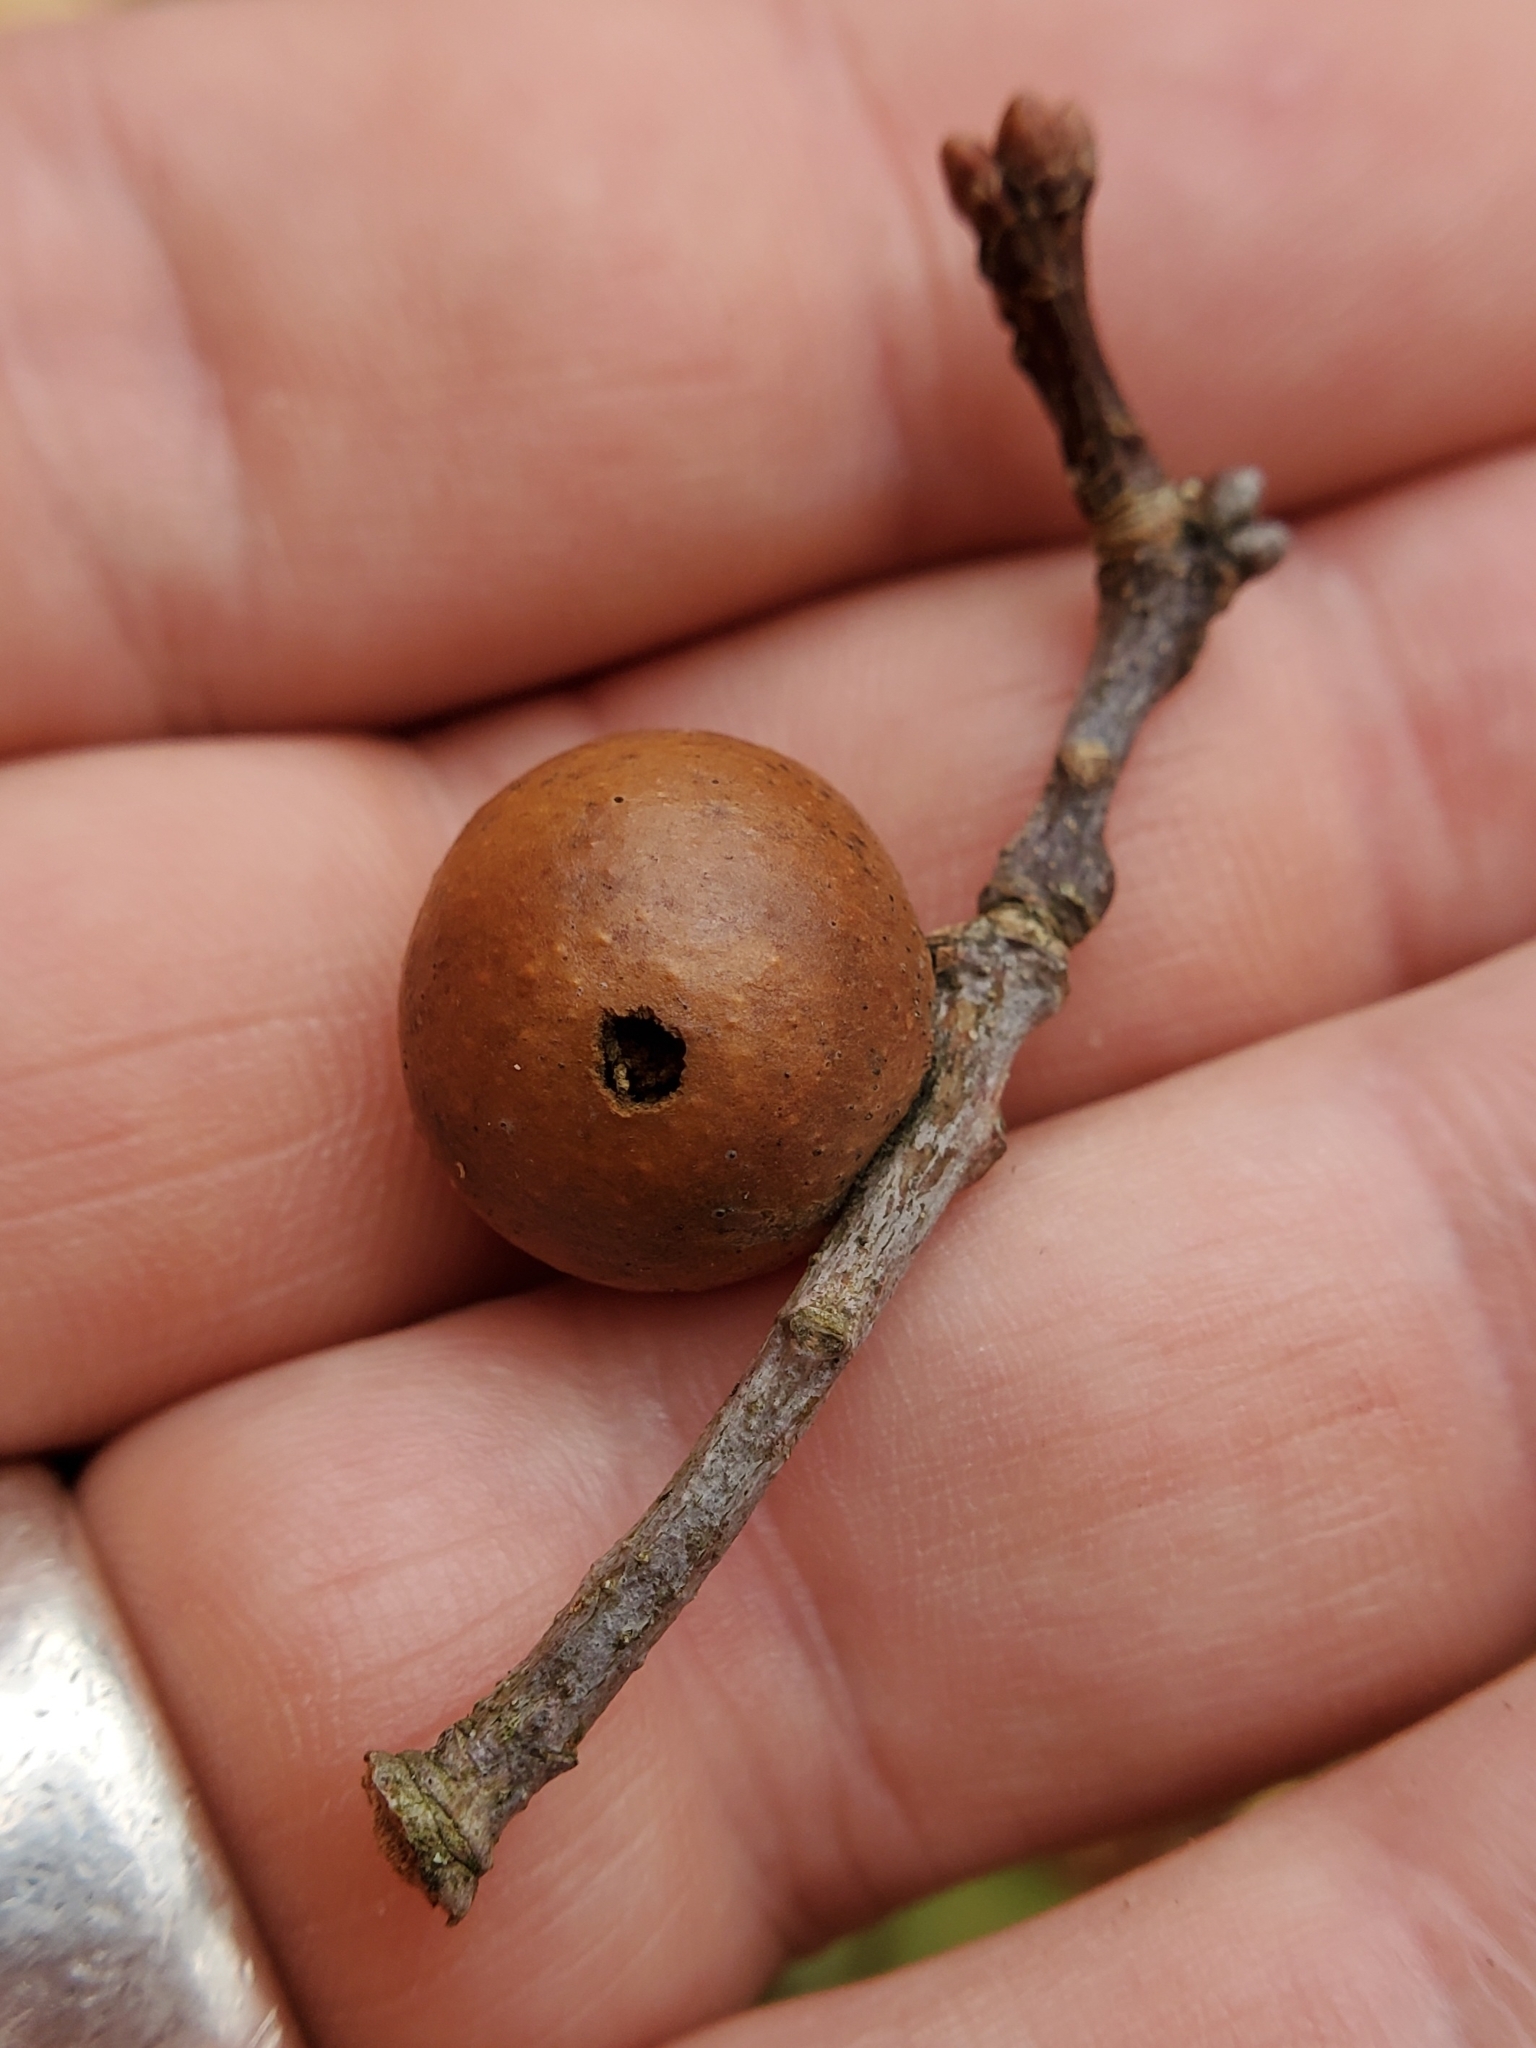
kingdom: Animalia
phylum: Arthropoda
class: Insecta
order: Hymenoptera
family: Cynipidae
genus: Disholcaspis
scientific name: Disholcaspis quercusglobulus
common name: Round bullet gall wasp
